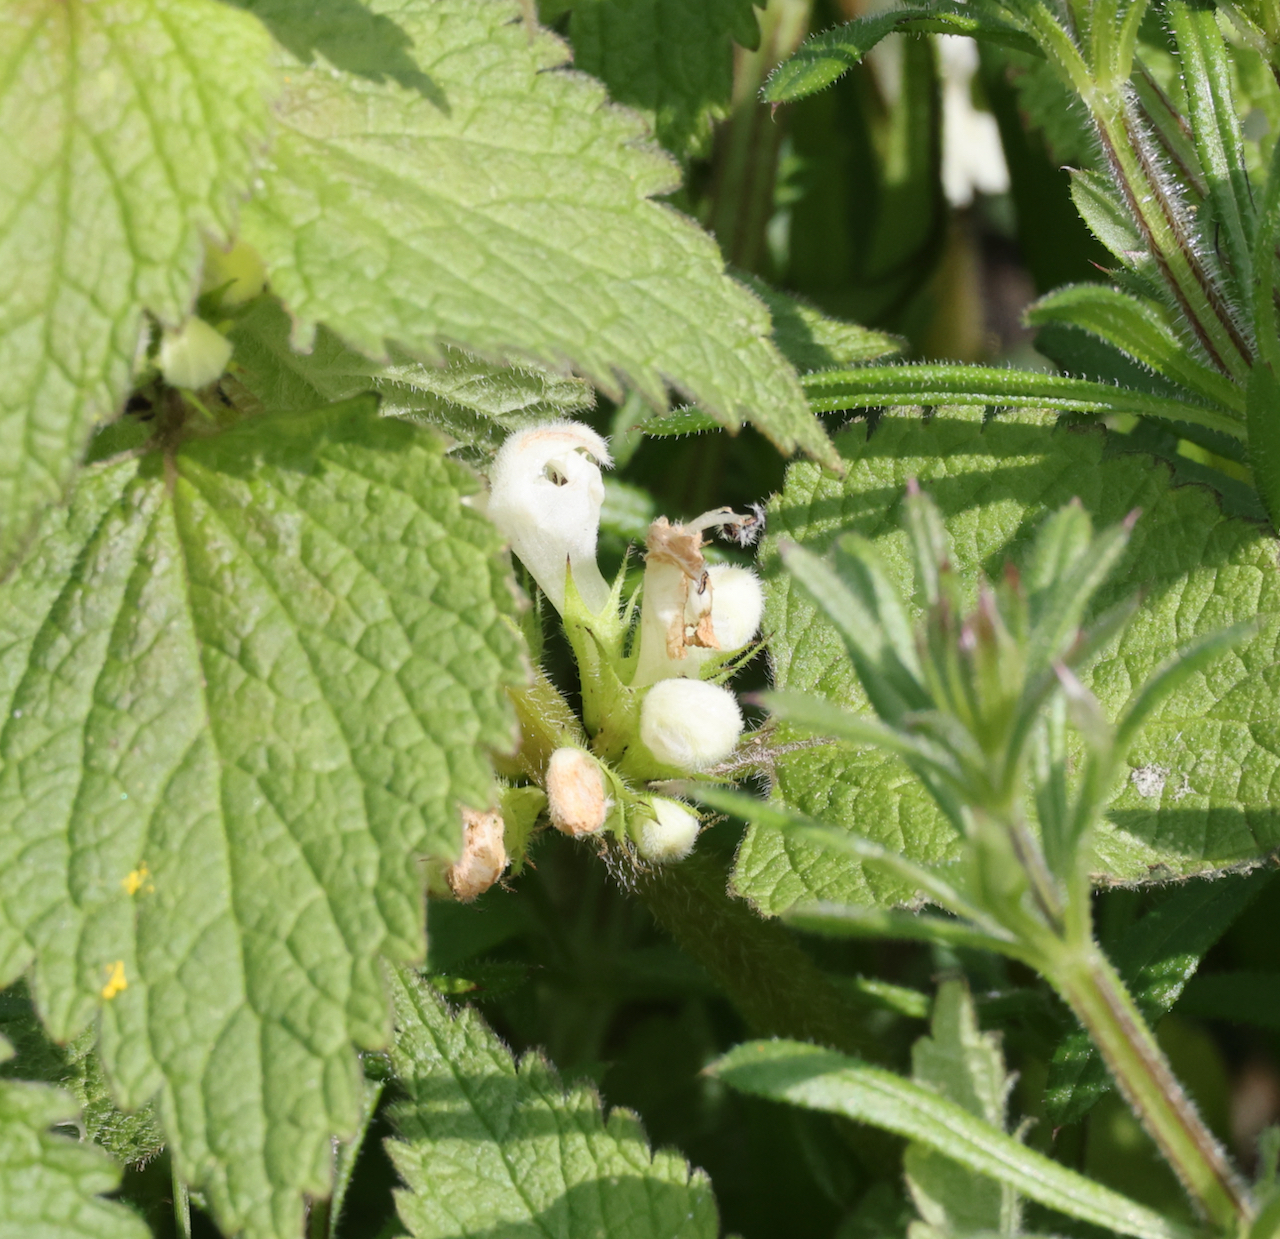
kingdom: Plantae
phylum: Tracheophyta
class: Magnoliopsida
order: Lamiales
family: Lamiaceae
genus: Lamium
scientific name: Lamium album
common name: White dead-nettle
